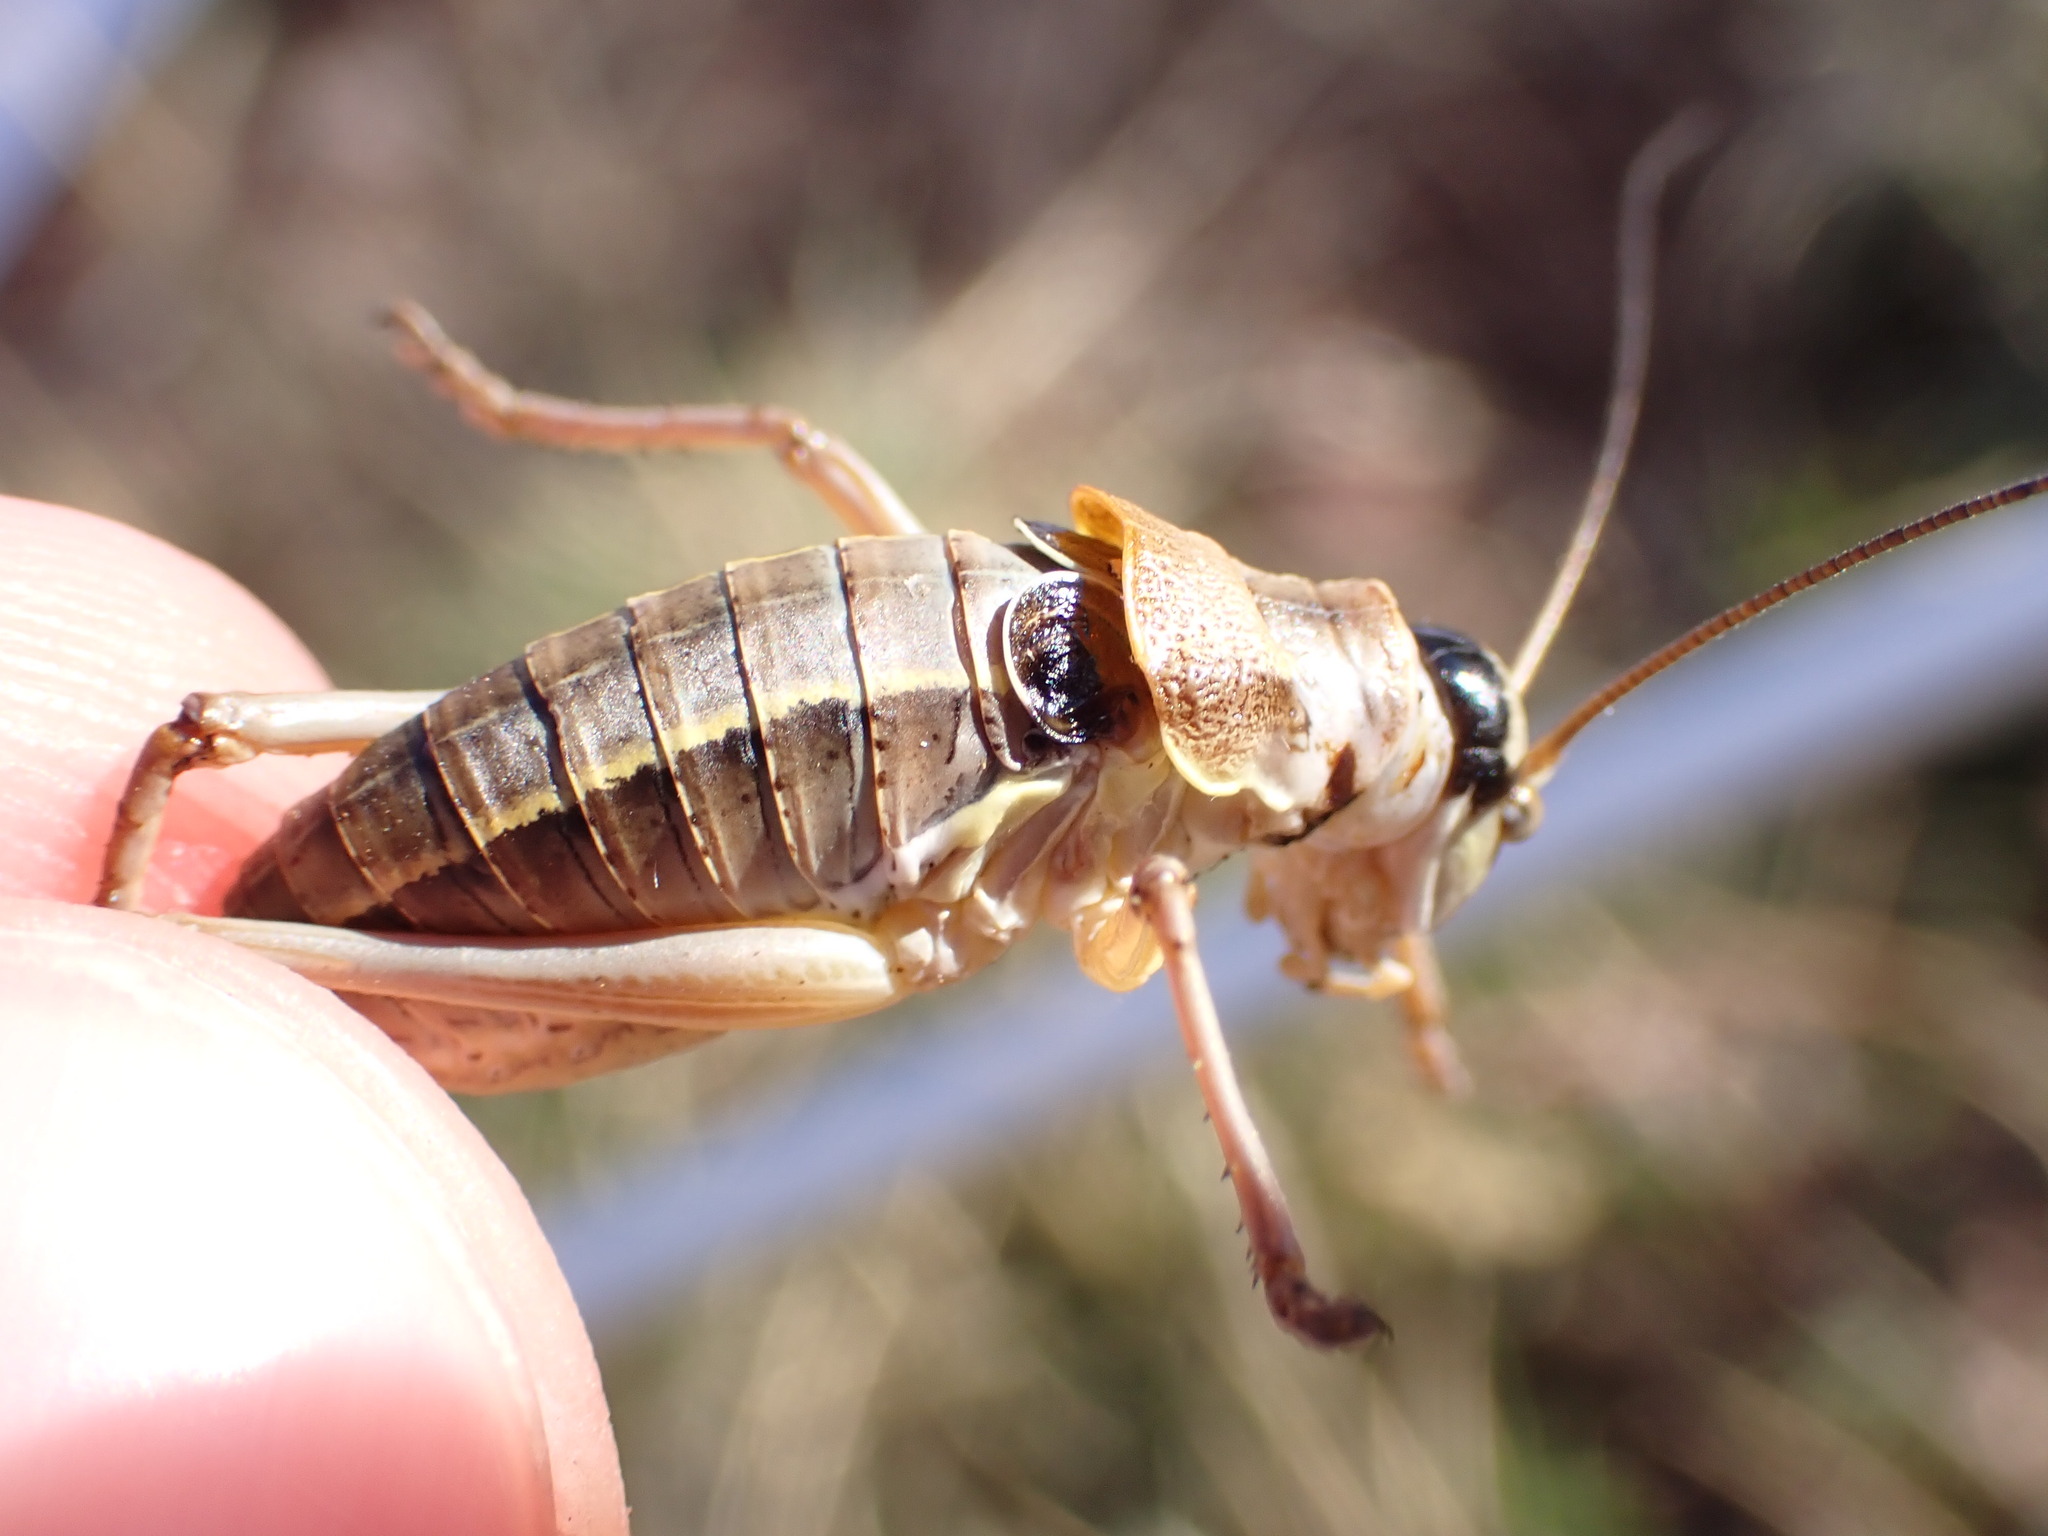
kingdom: Animalia
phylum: Arthropoda
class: Insecta
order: Orthoptera
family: Tettigoniidae
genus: Ephippiger
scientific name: Ephippiger terrestris
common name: Alpine saddle-backed bush-cricket
